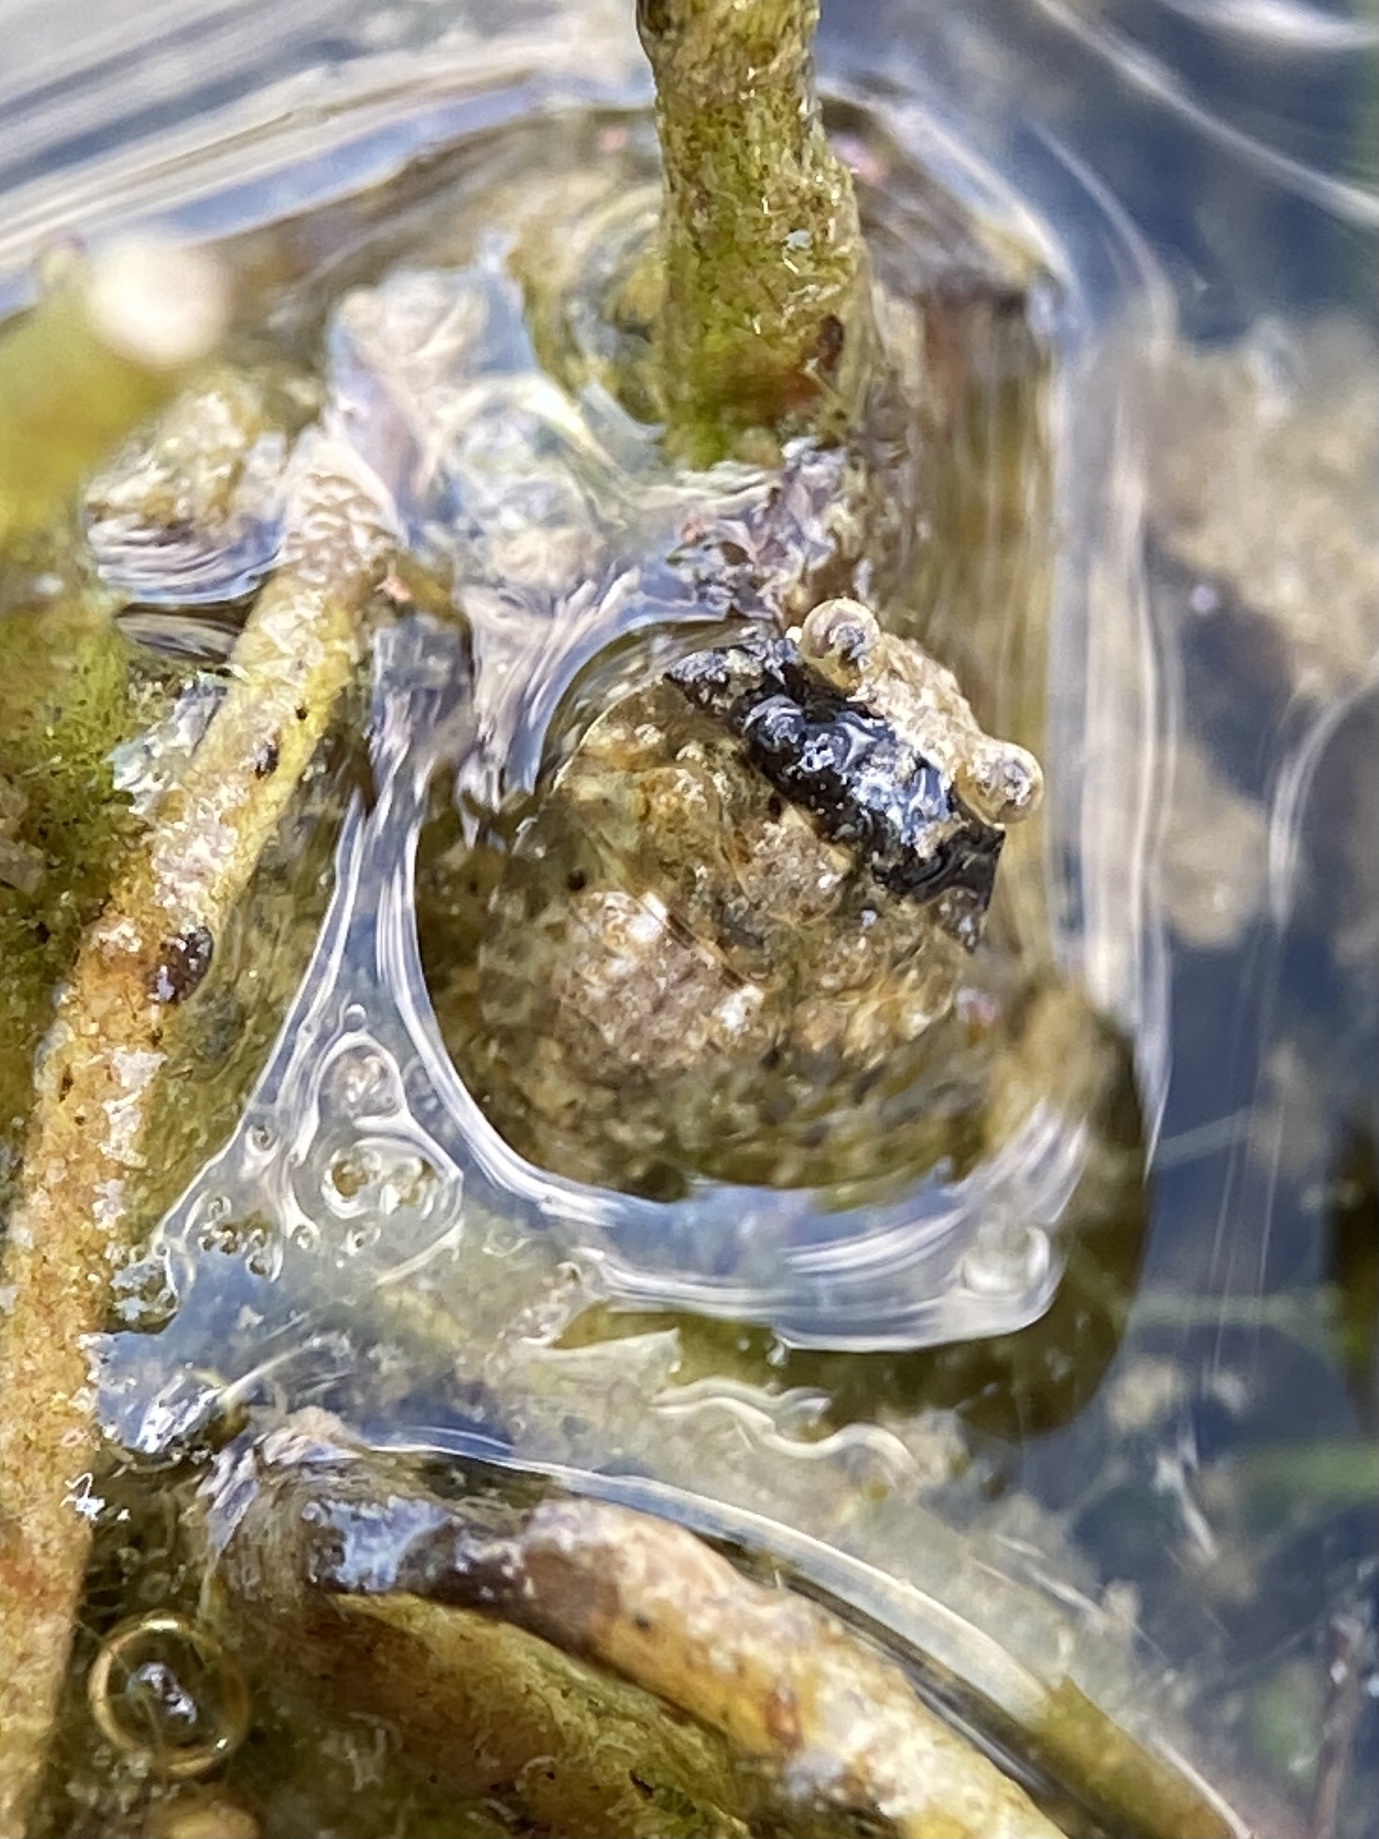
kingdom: Animalia
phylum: Arthropoda
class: Insecta
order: Hemiptera
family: Gelastocoridae
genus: Gelastocoris
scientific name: Gelastocoris oculatus
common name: Toad bug
